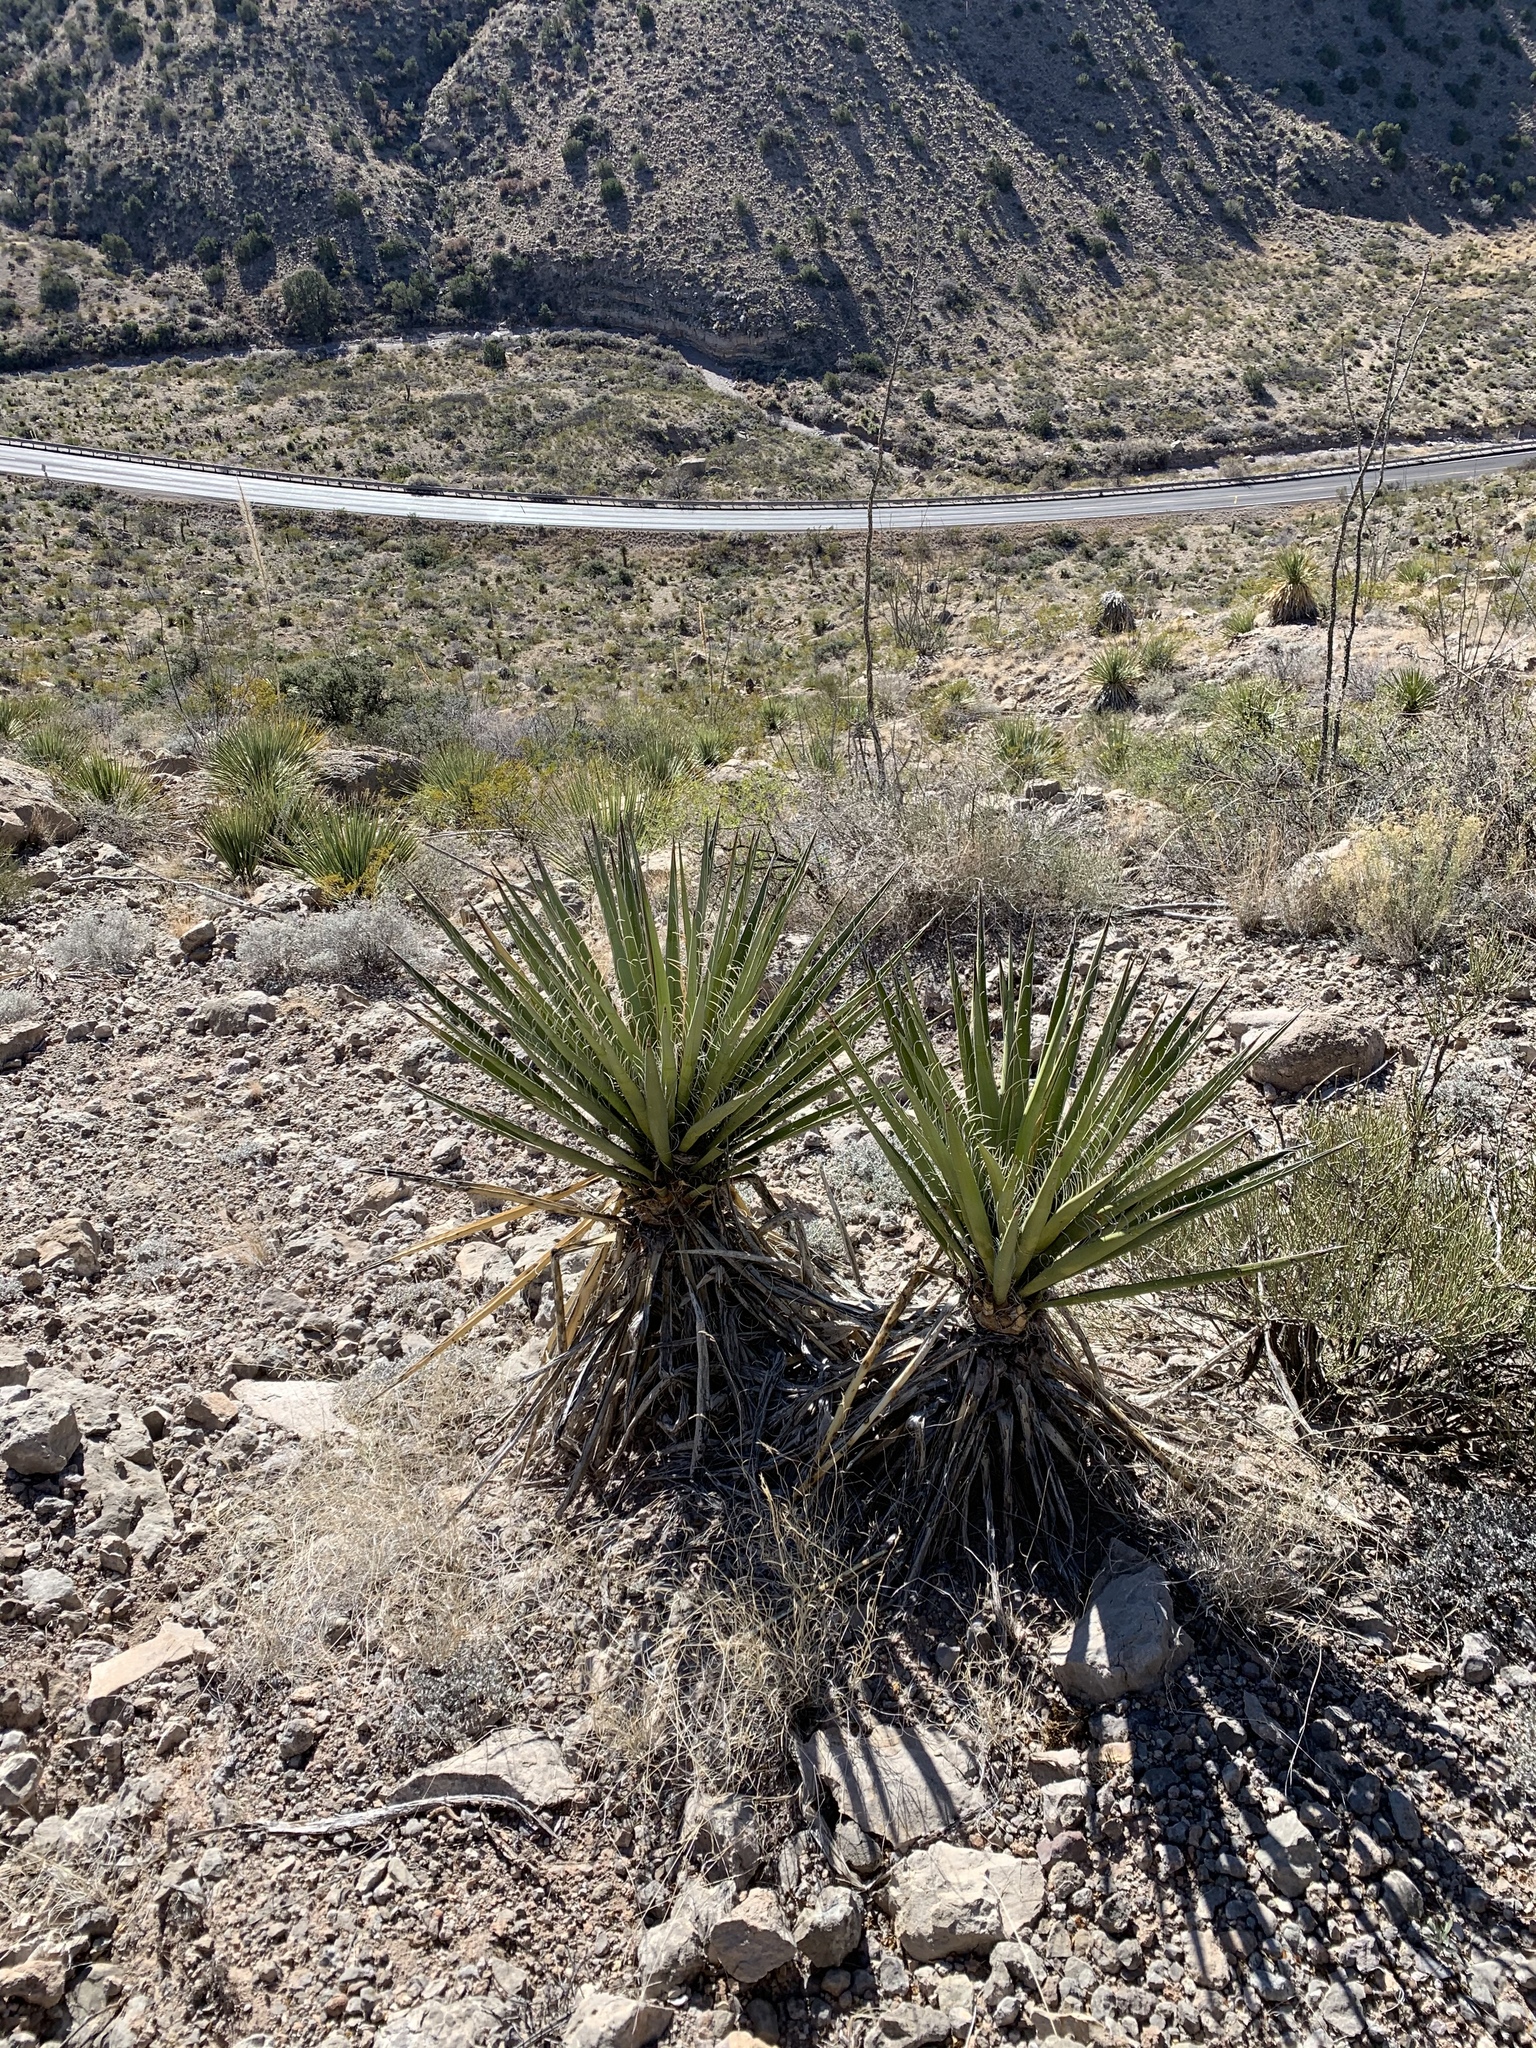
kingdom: Plantae
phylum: Tracheophyta
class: Liliopsida
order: Asparagales
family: Asparagaceae
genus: Yucca
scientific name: Yucca treculiana
